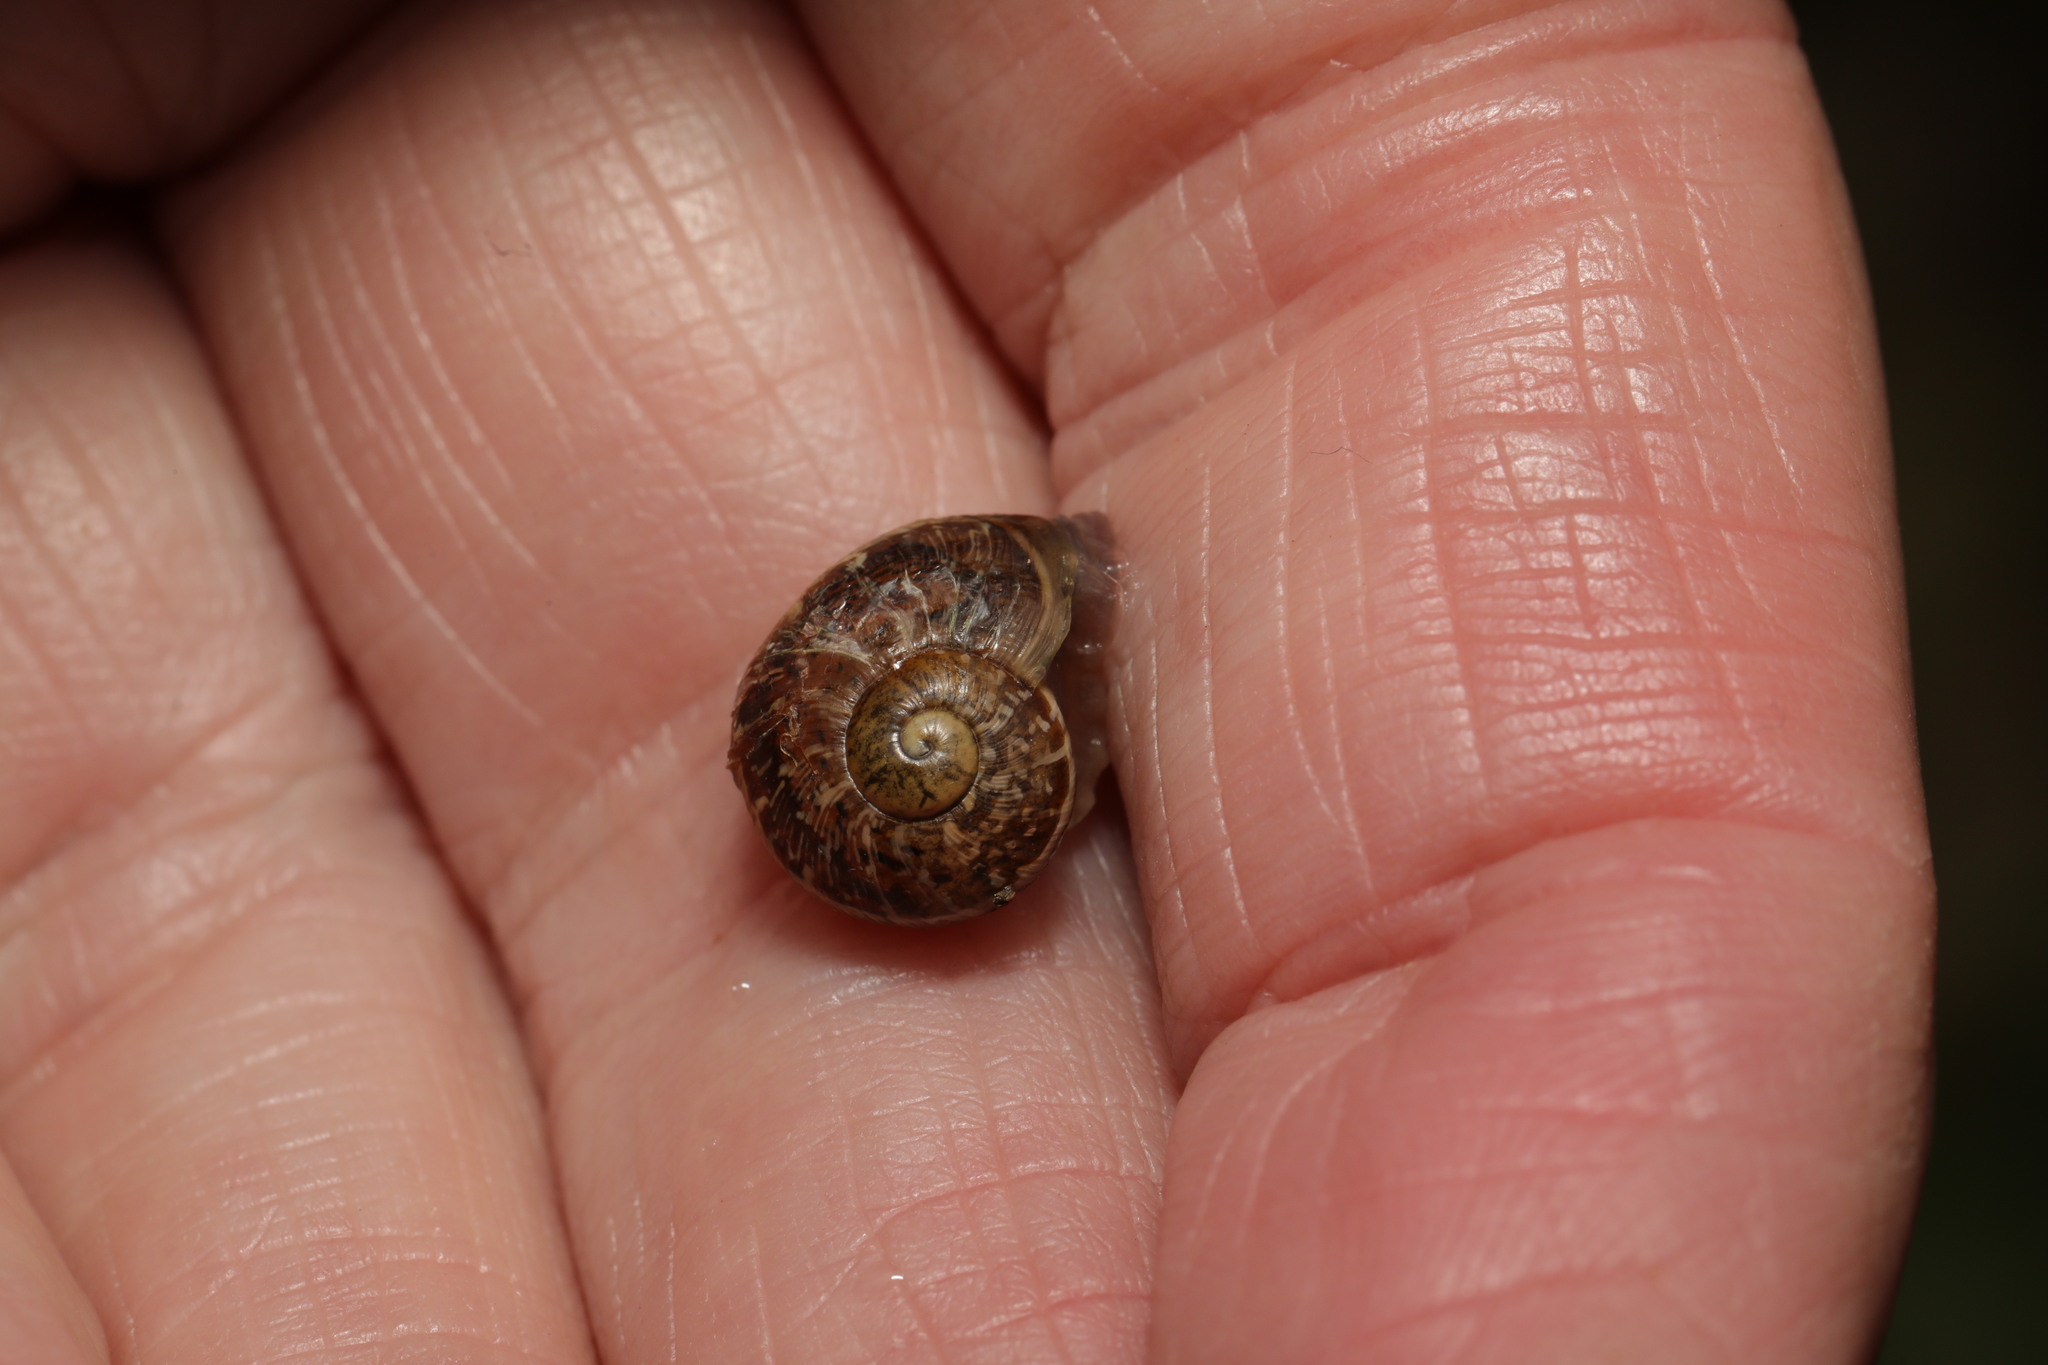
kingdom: Animalia
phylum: Mollusca
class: Gastropoda
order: Stylommatophora
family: Helicidae
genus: Cornu
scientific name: Cornu aspersum
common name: Brown garden snail
